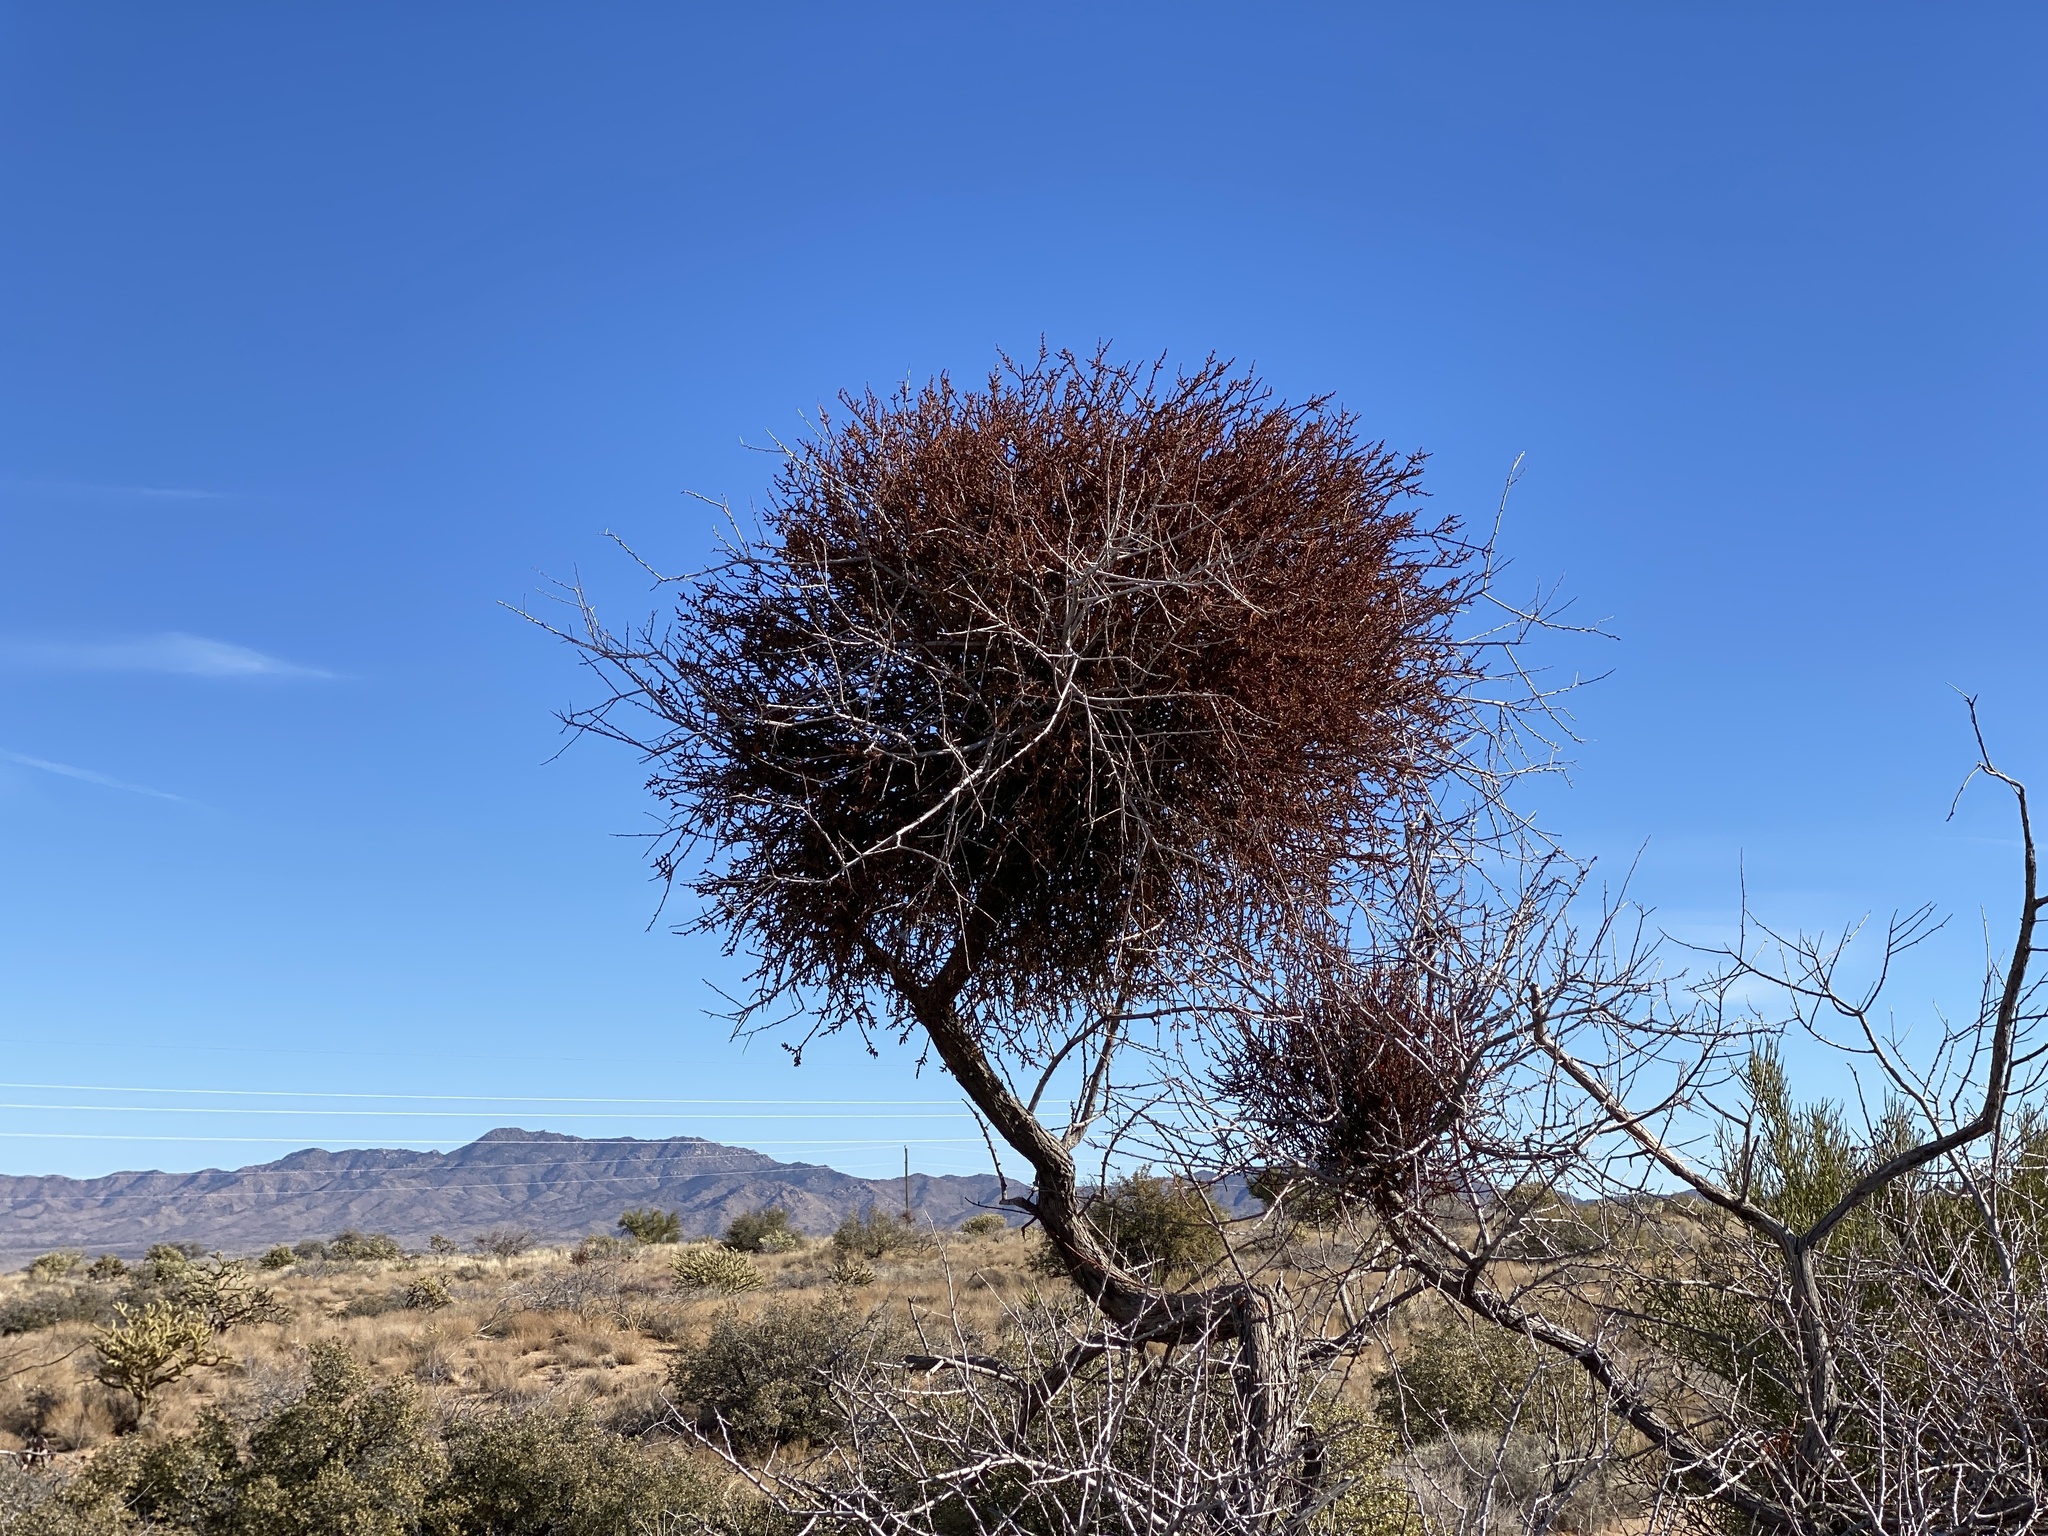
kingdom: Plantae
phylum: Tracheophyta
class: Magnoliopsida
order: Santalales
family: Viscaceae
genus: Phoradendron
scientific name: Phoradendron californicum
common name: Acacia mistletoe
